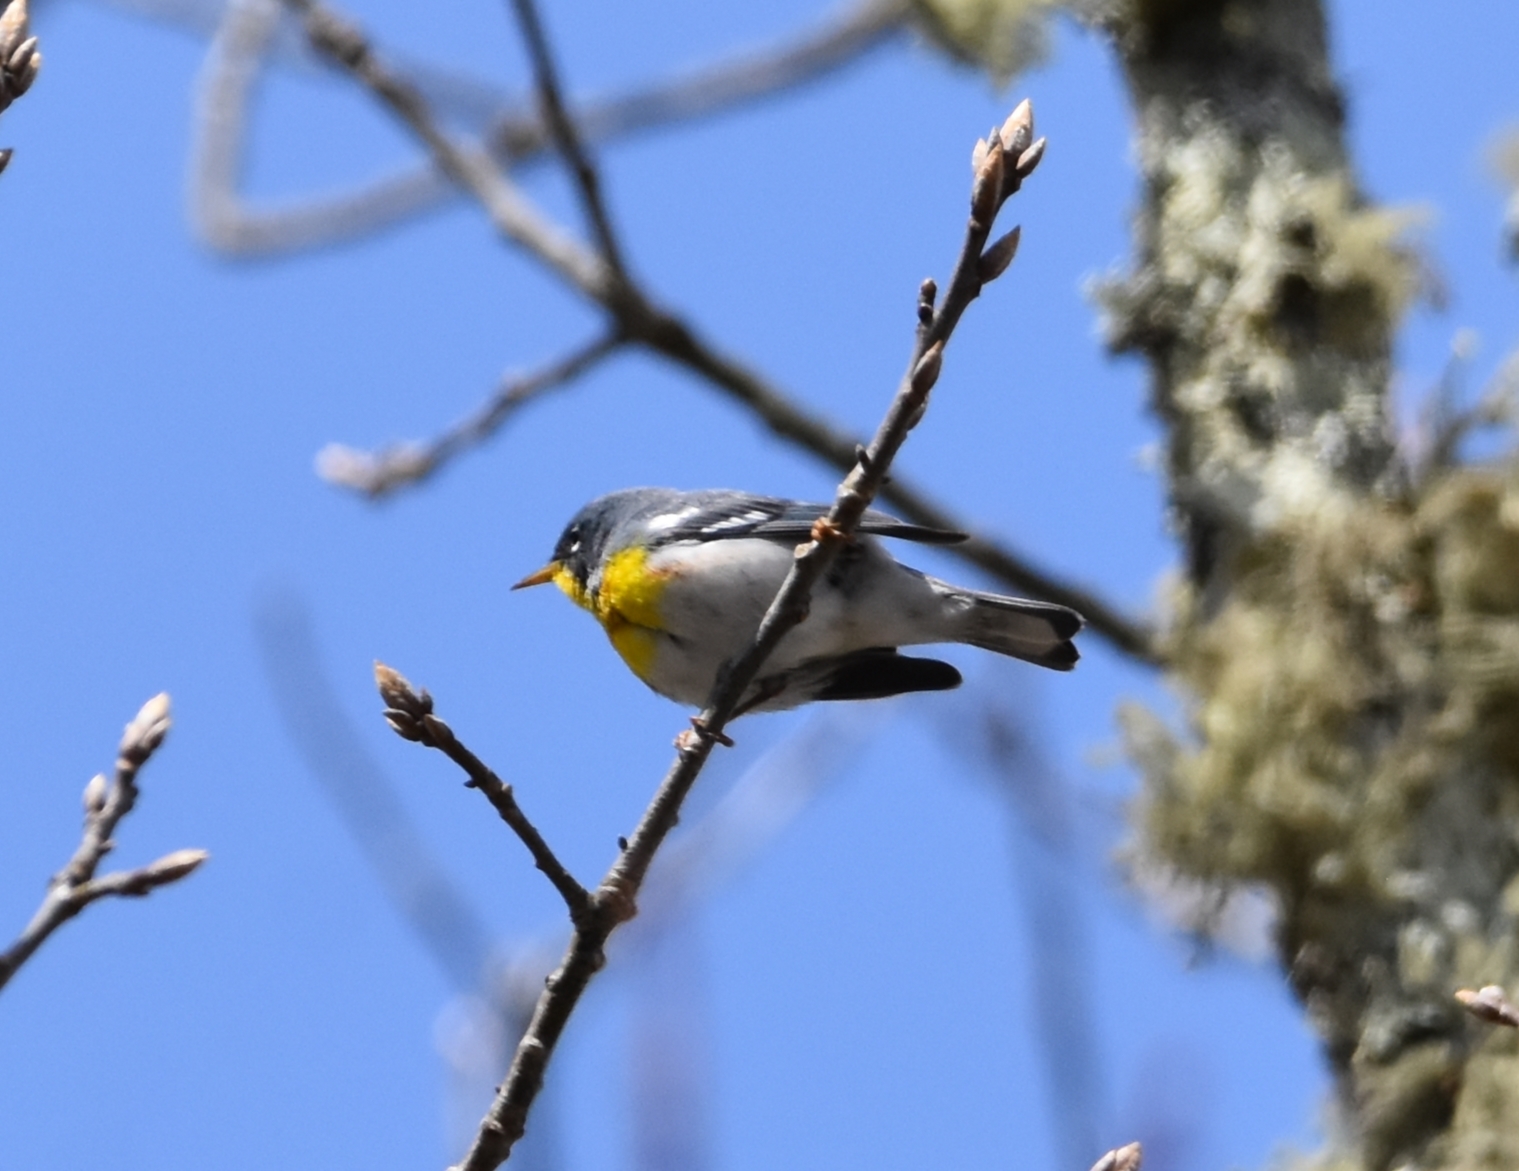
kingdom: Animalia
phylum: Chordata
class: Aves
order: Passeriformes
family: Parulidae
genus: Setophaga
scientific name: Setophaga americana
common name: Northern parula
